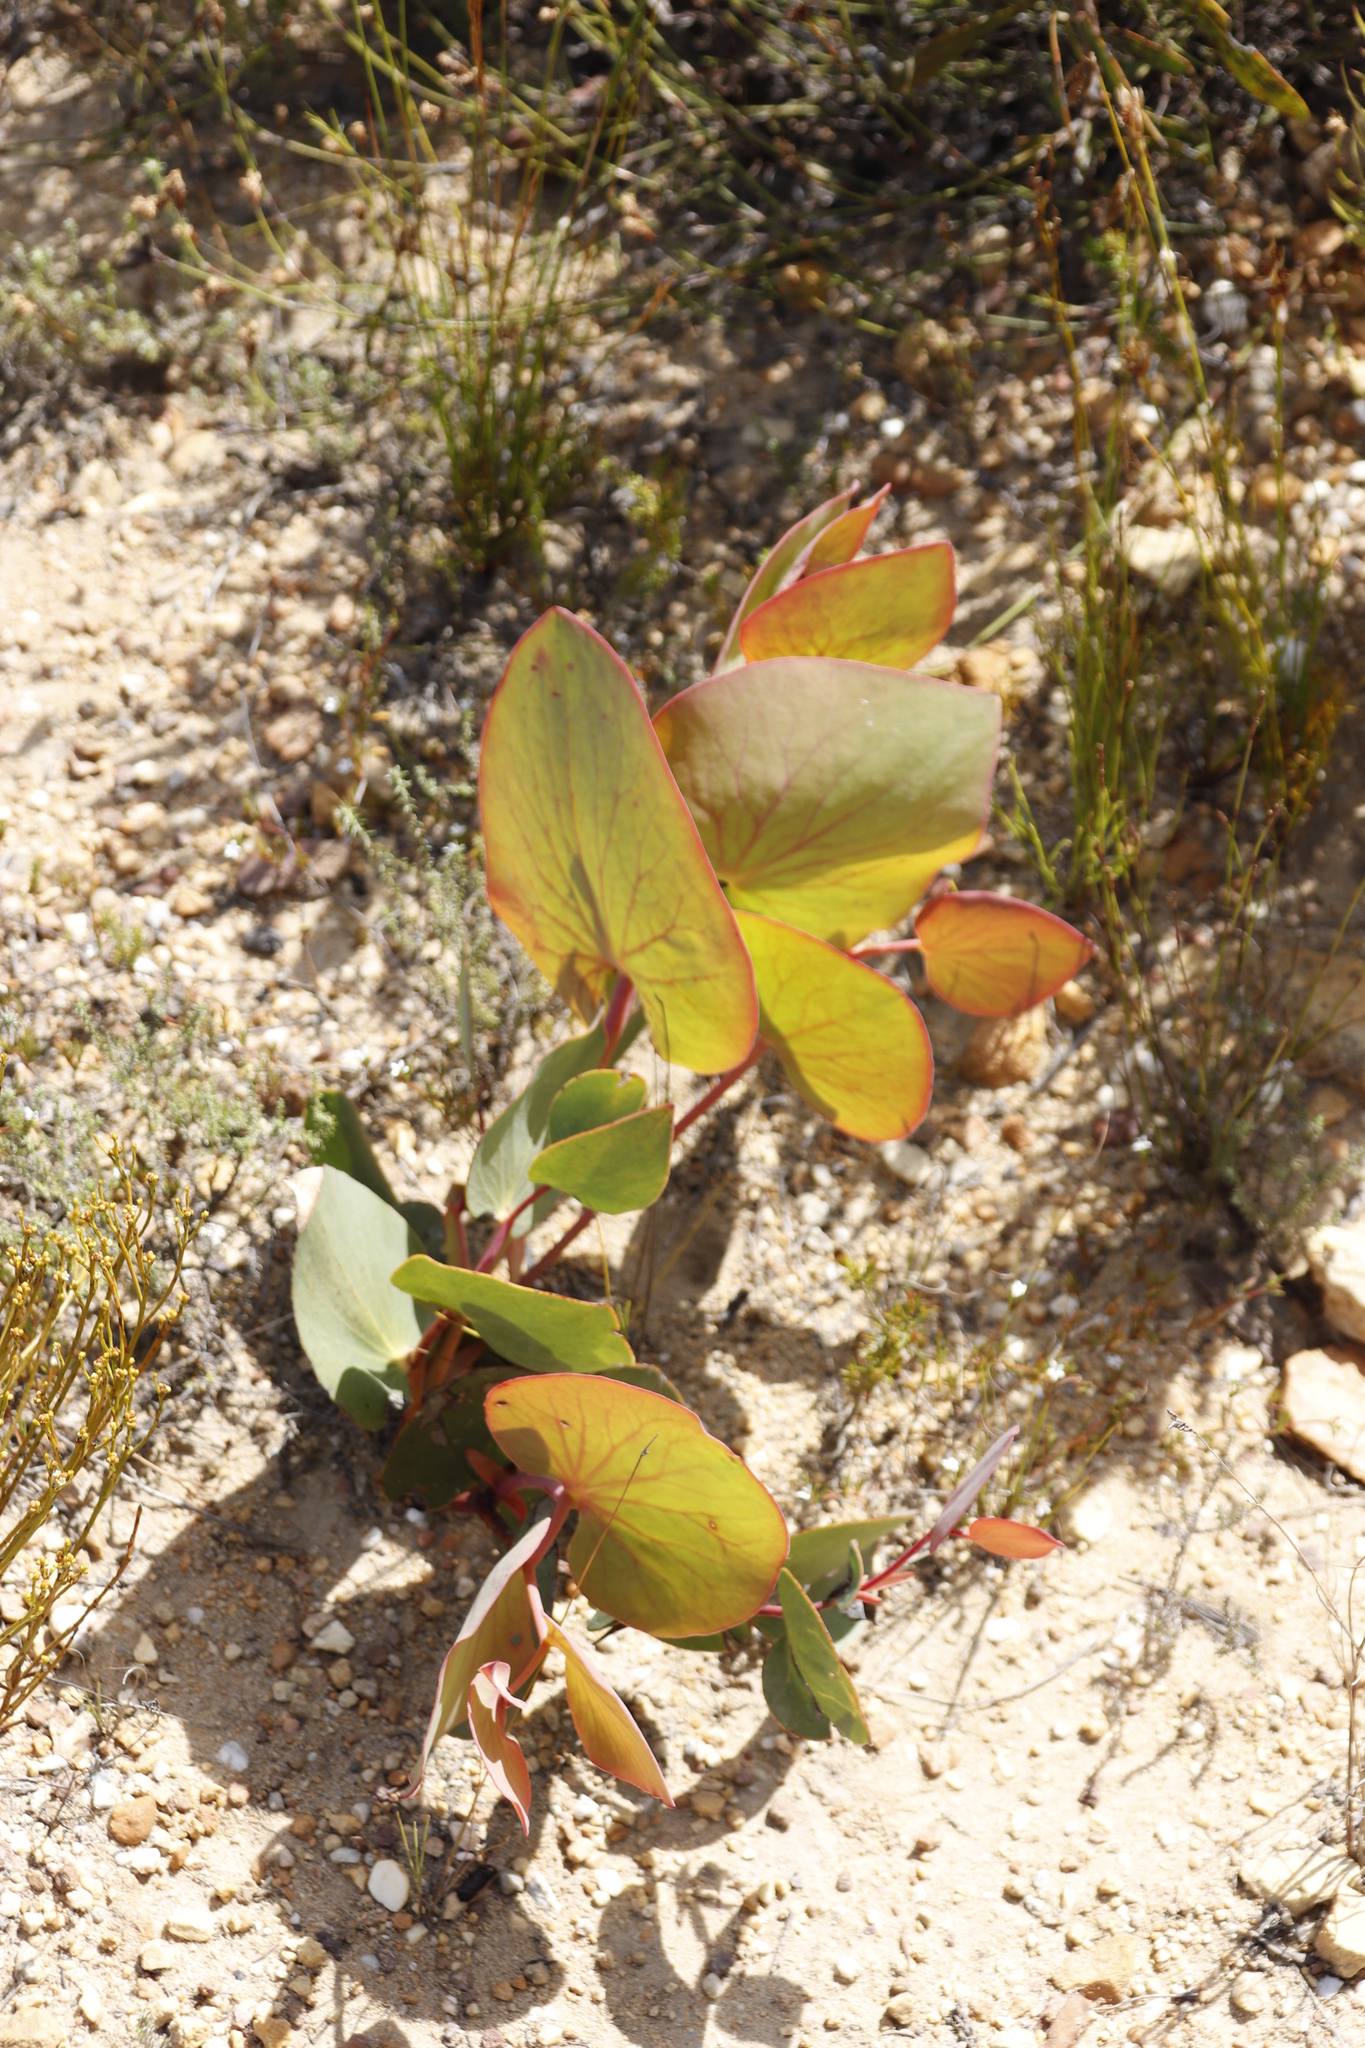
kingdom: Plantae
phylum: Tracheophyta
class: Magnoliopsida
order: Proteales
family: Proteaceae
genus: Protea
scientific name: Protea cordata
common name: Heart-leaf sugarbush
